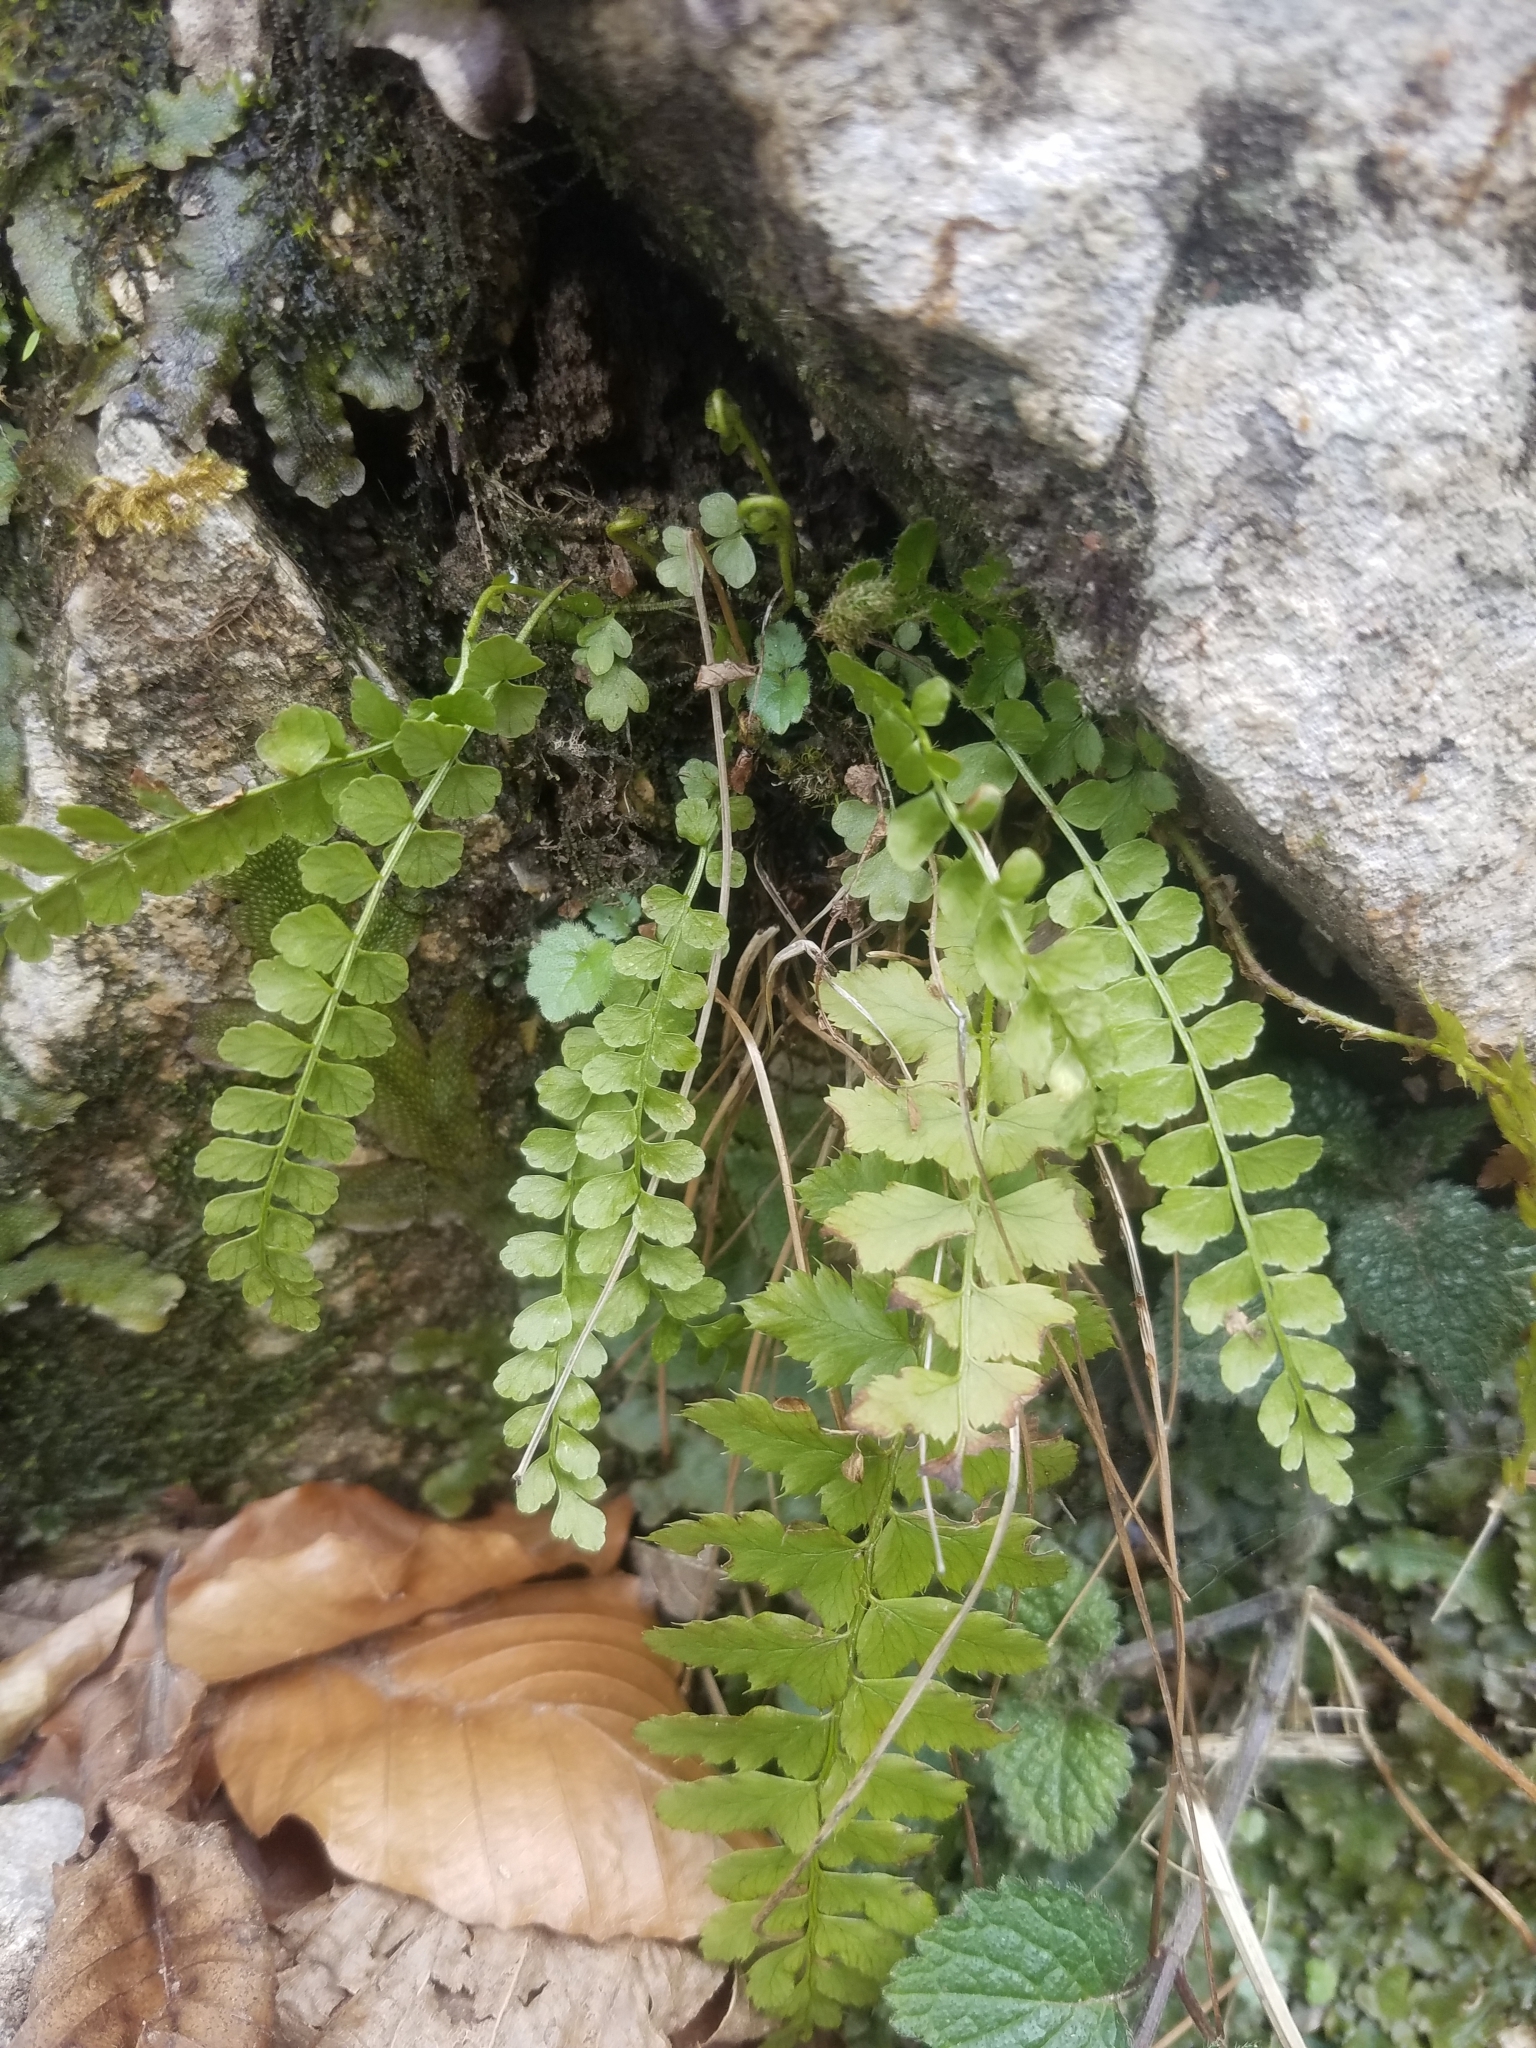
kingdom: Plantae
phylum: Tracheophyta
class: Polypodiopsida
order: Polypodiales
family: Aspleniaceae
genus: Asplenium
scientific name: Asplenium viride
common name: Green spleenwort
